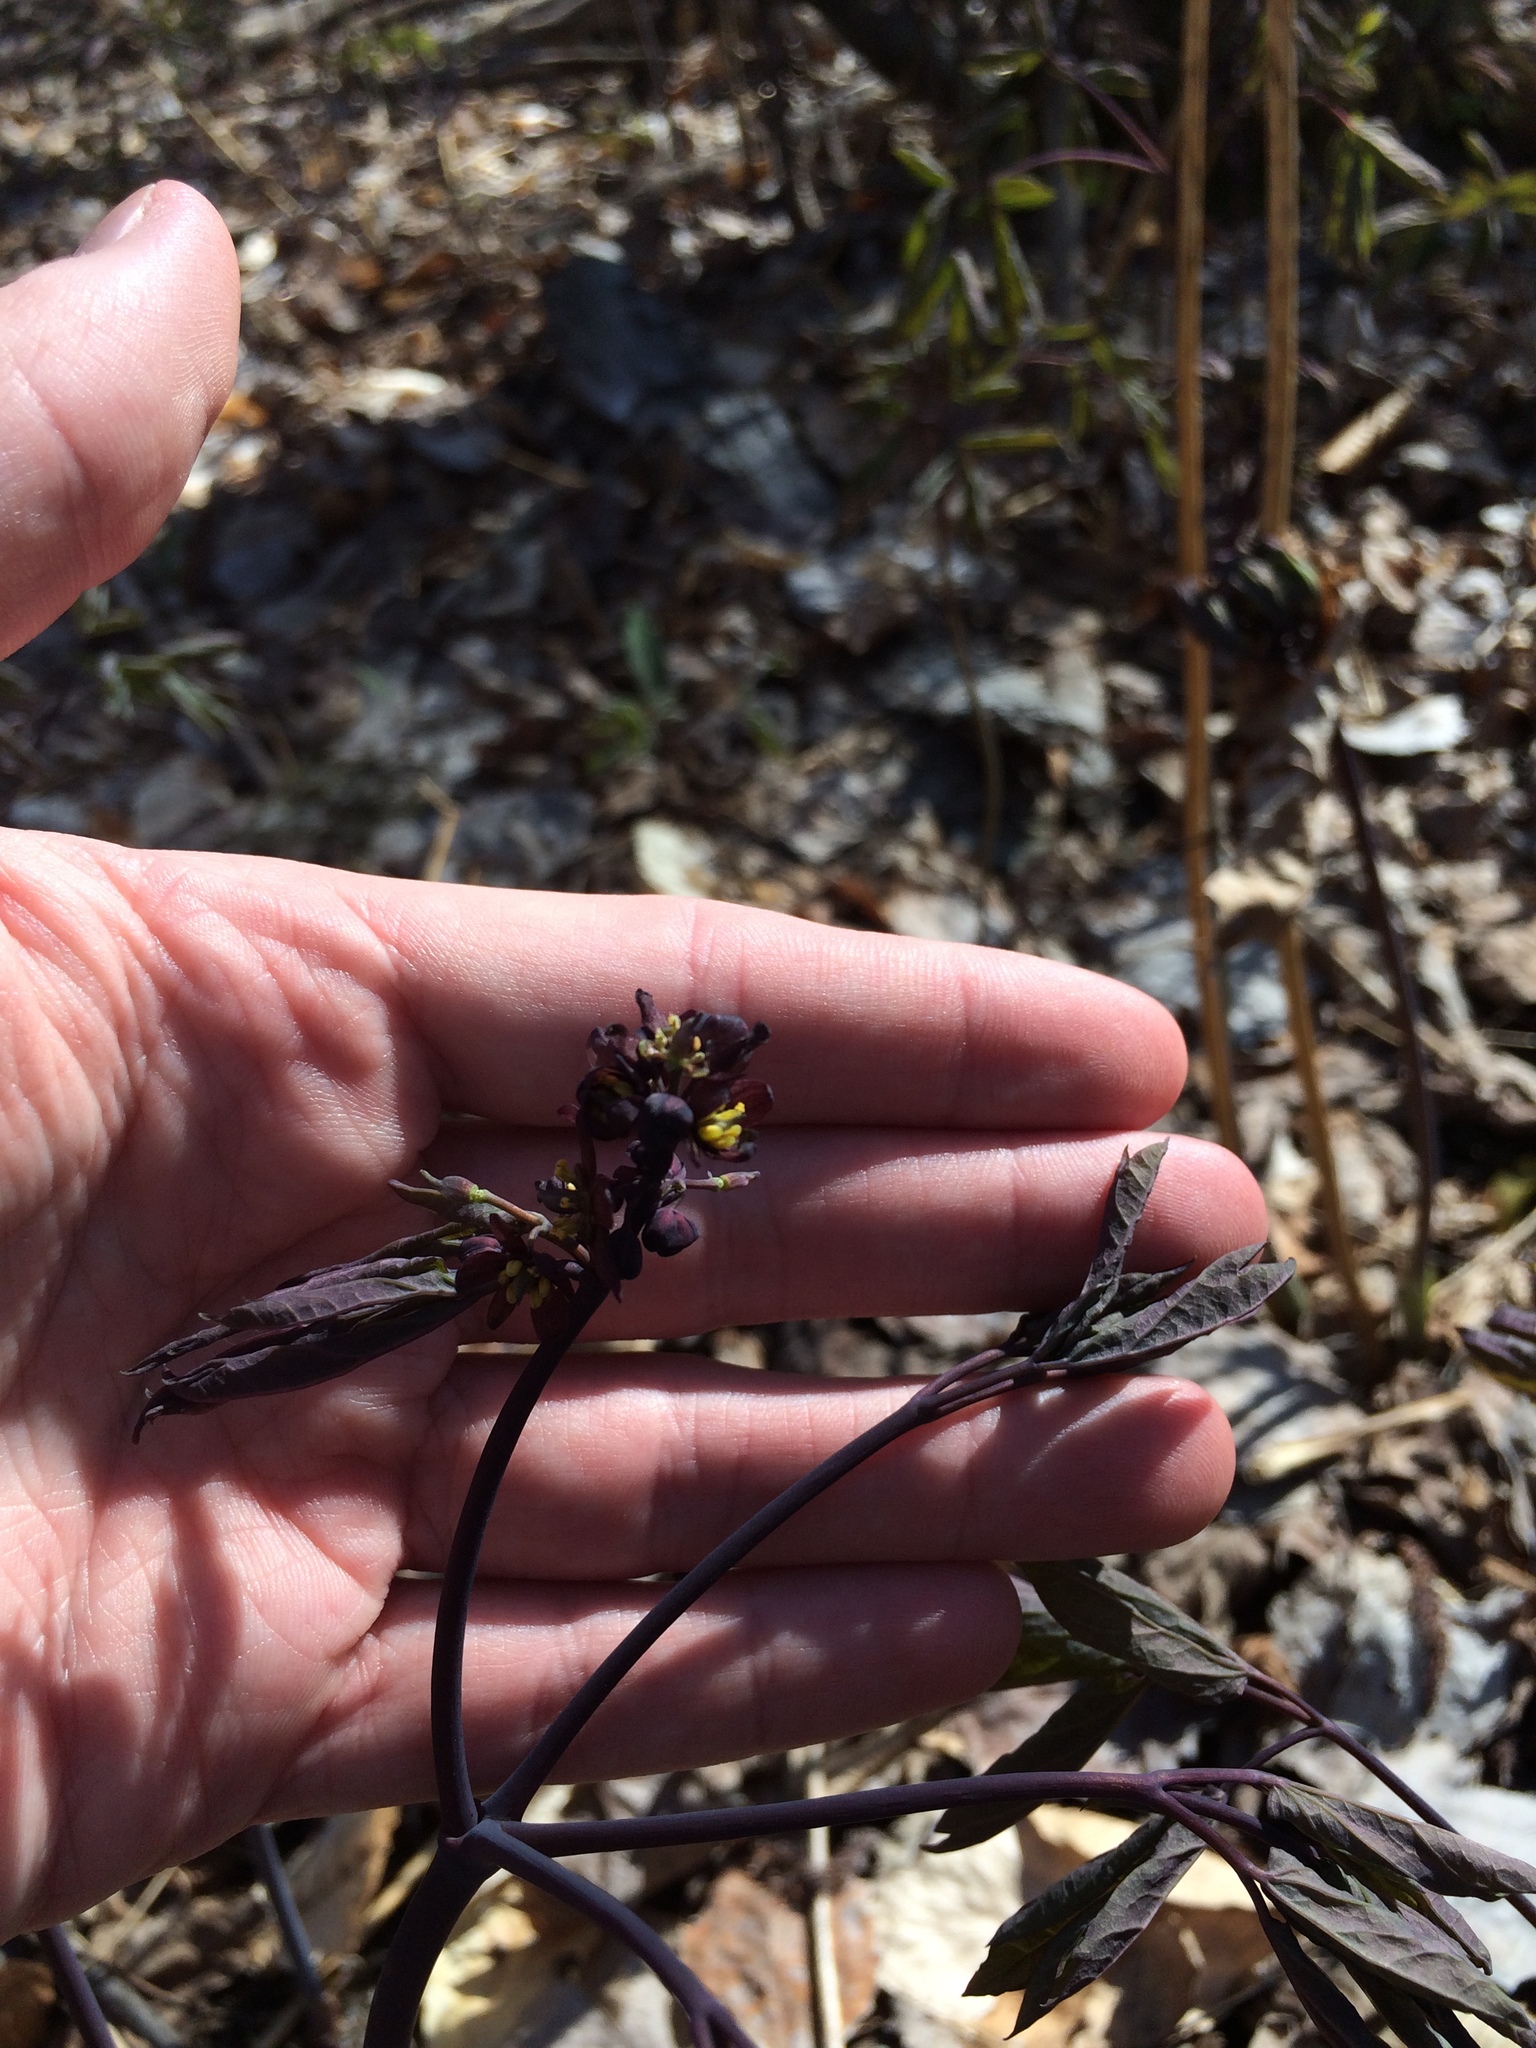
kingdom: Plantae
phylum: Tracheophyta
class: Magnoliopsida
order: Ranunculales
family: Berberidaceae
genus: Caulophyllum
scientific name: Caulophyllum giganteum
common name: Blue cohosh
